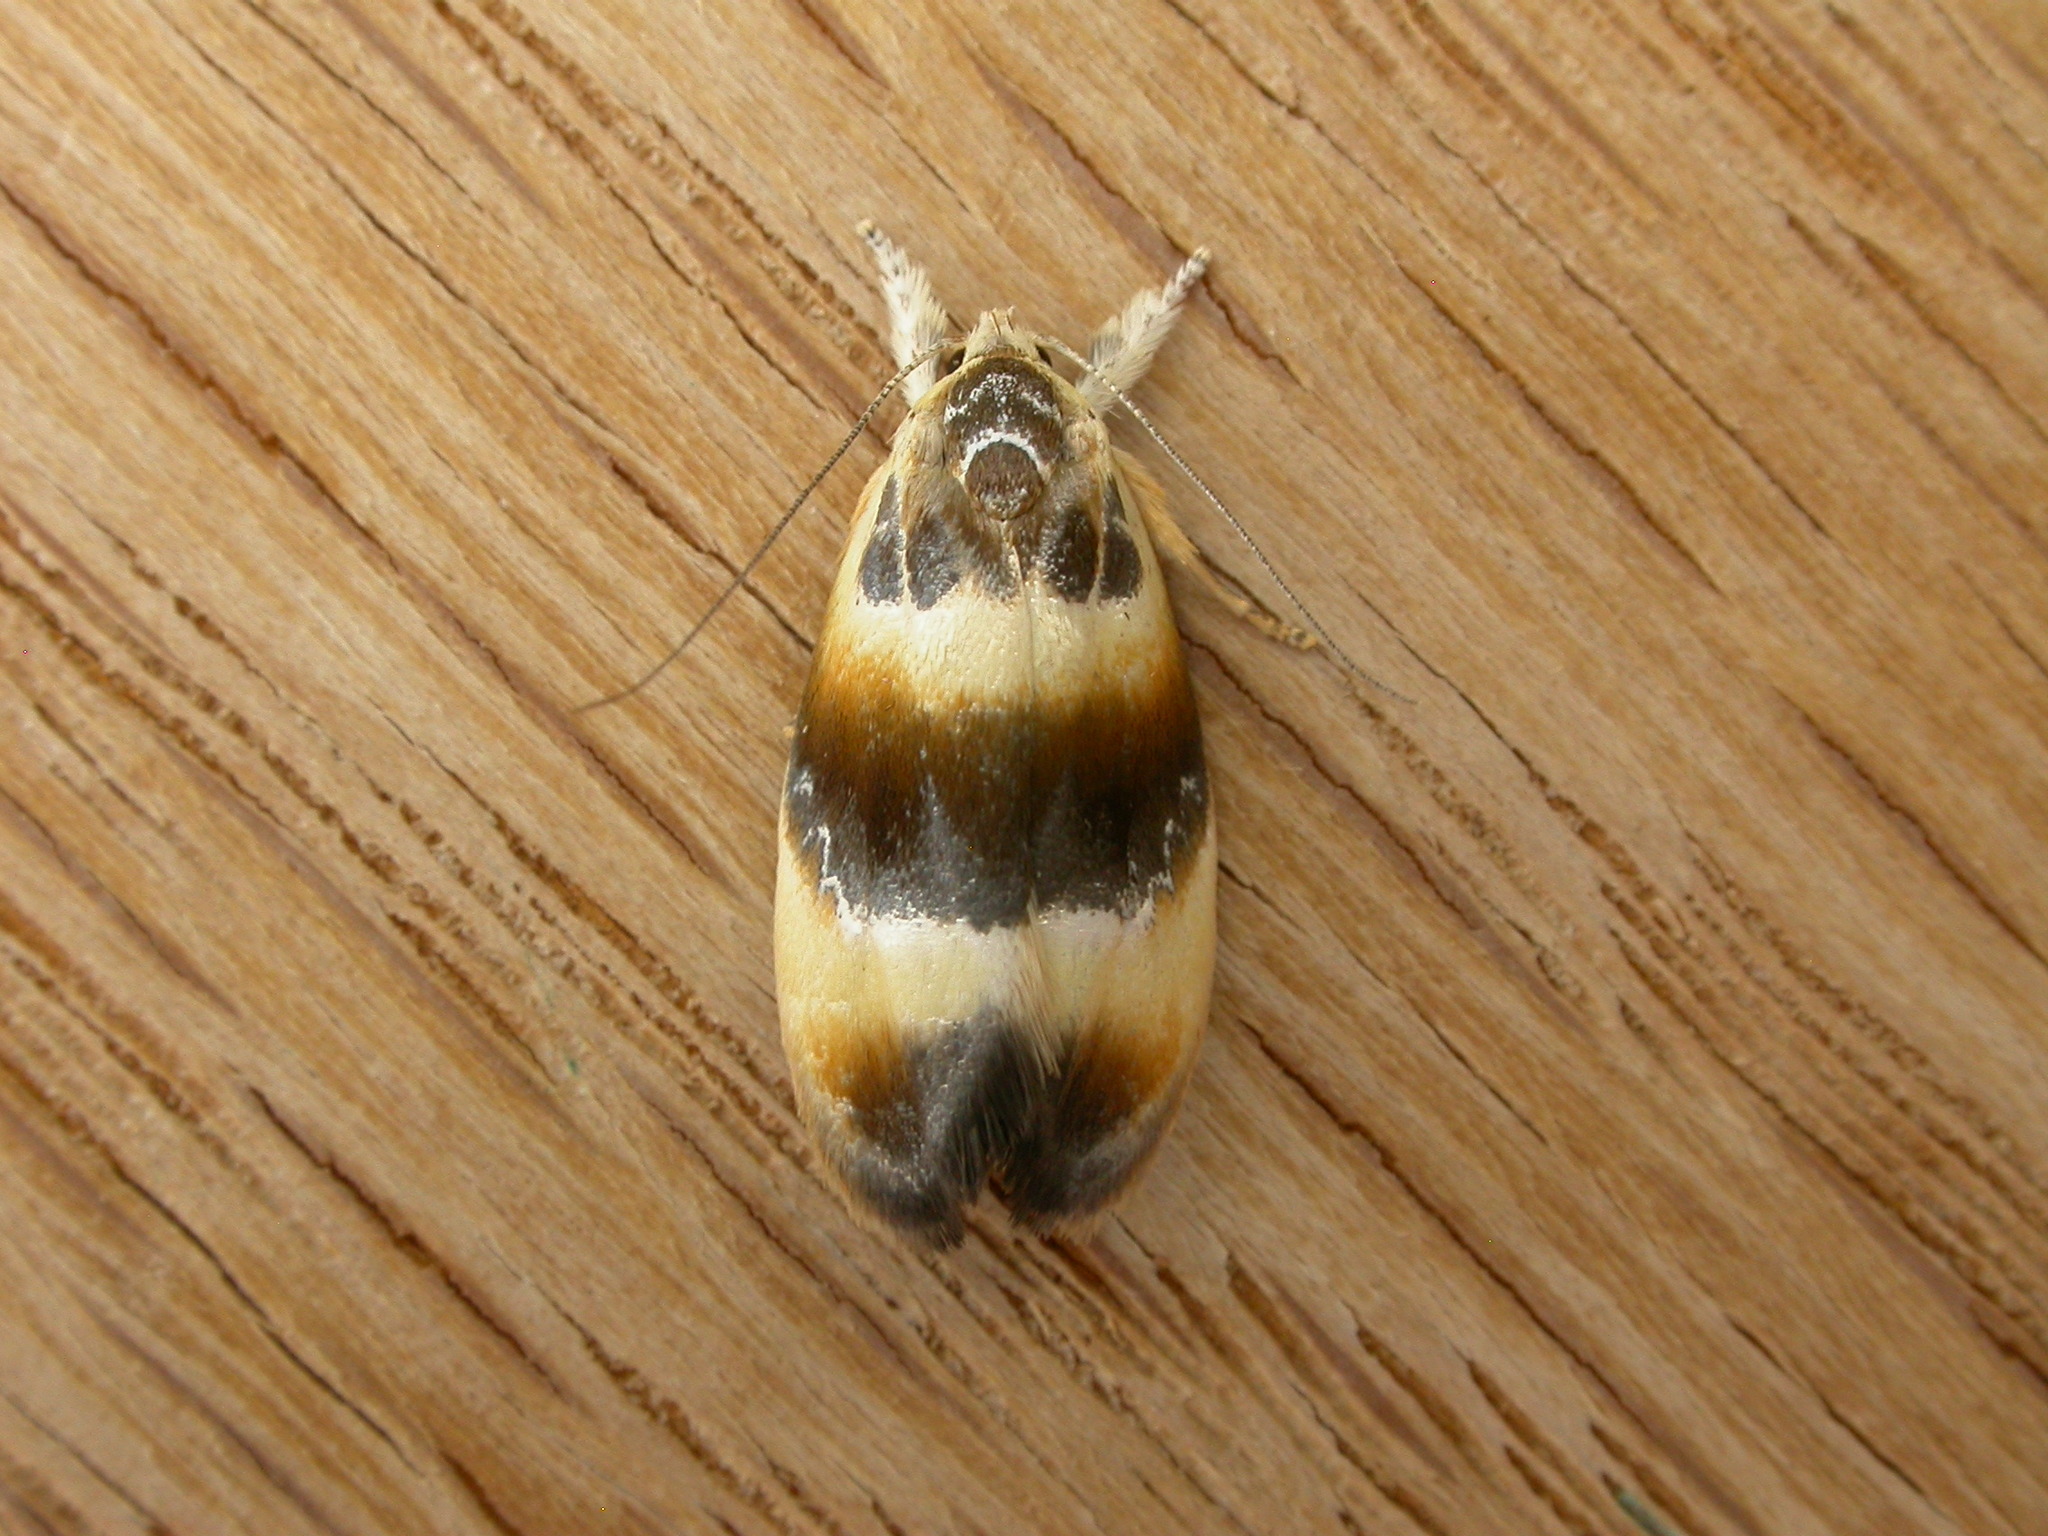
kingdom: Animalia
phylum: Arthropoda
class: Insecta
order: Lepidoptera
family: Oecophoridae
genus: Piloprepes
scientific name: Piloprepes anassa
